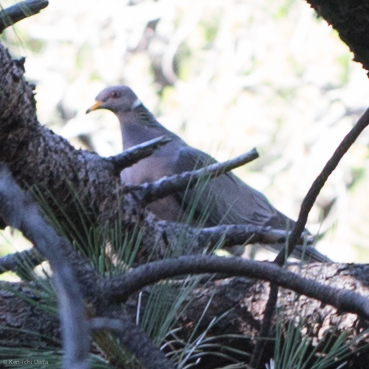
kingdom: Animalia
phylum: Chordata
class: Aves
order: Columbiformes
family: Columbidae
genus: Patagioenas
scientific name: Patagioenas fasciata
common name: Band-tailed pigeon
